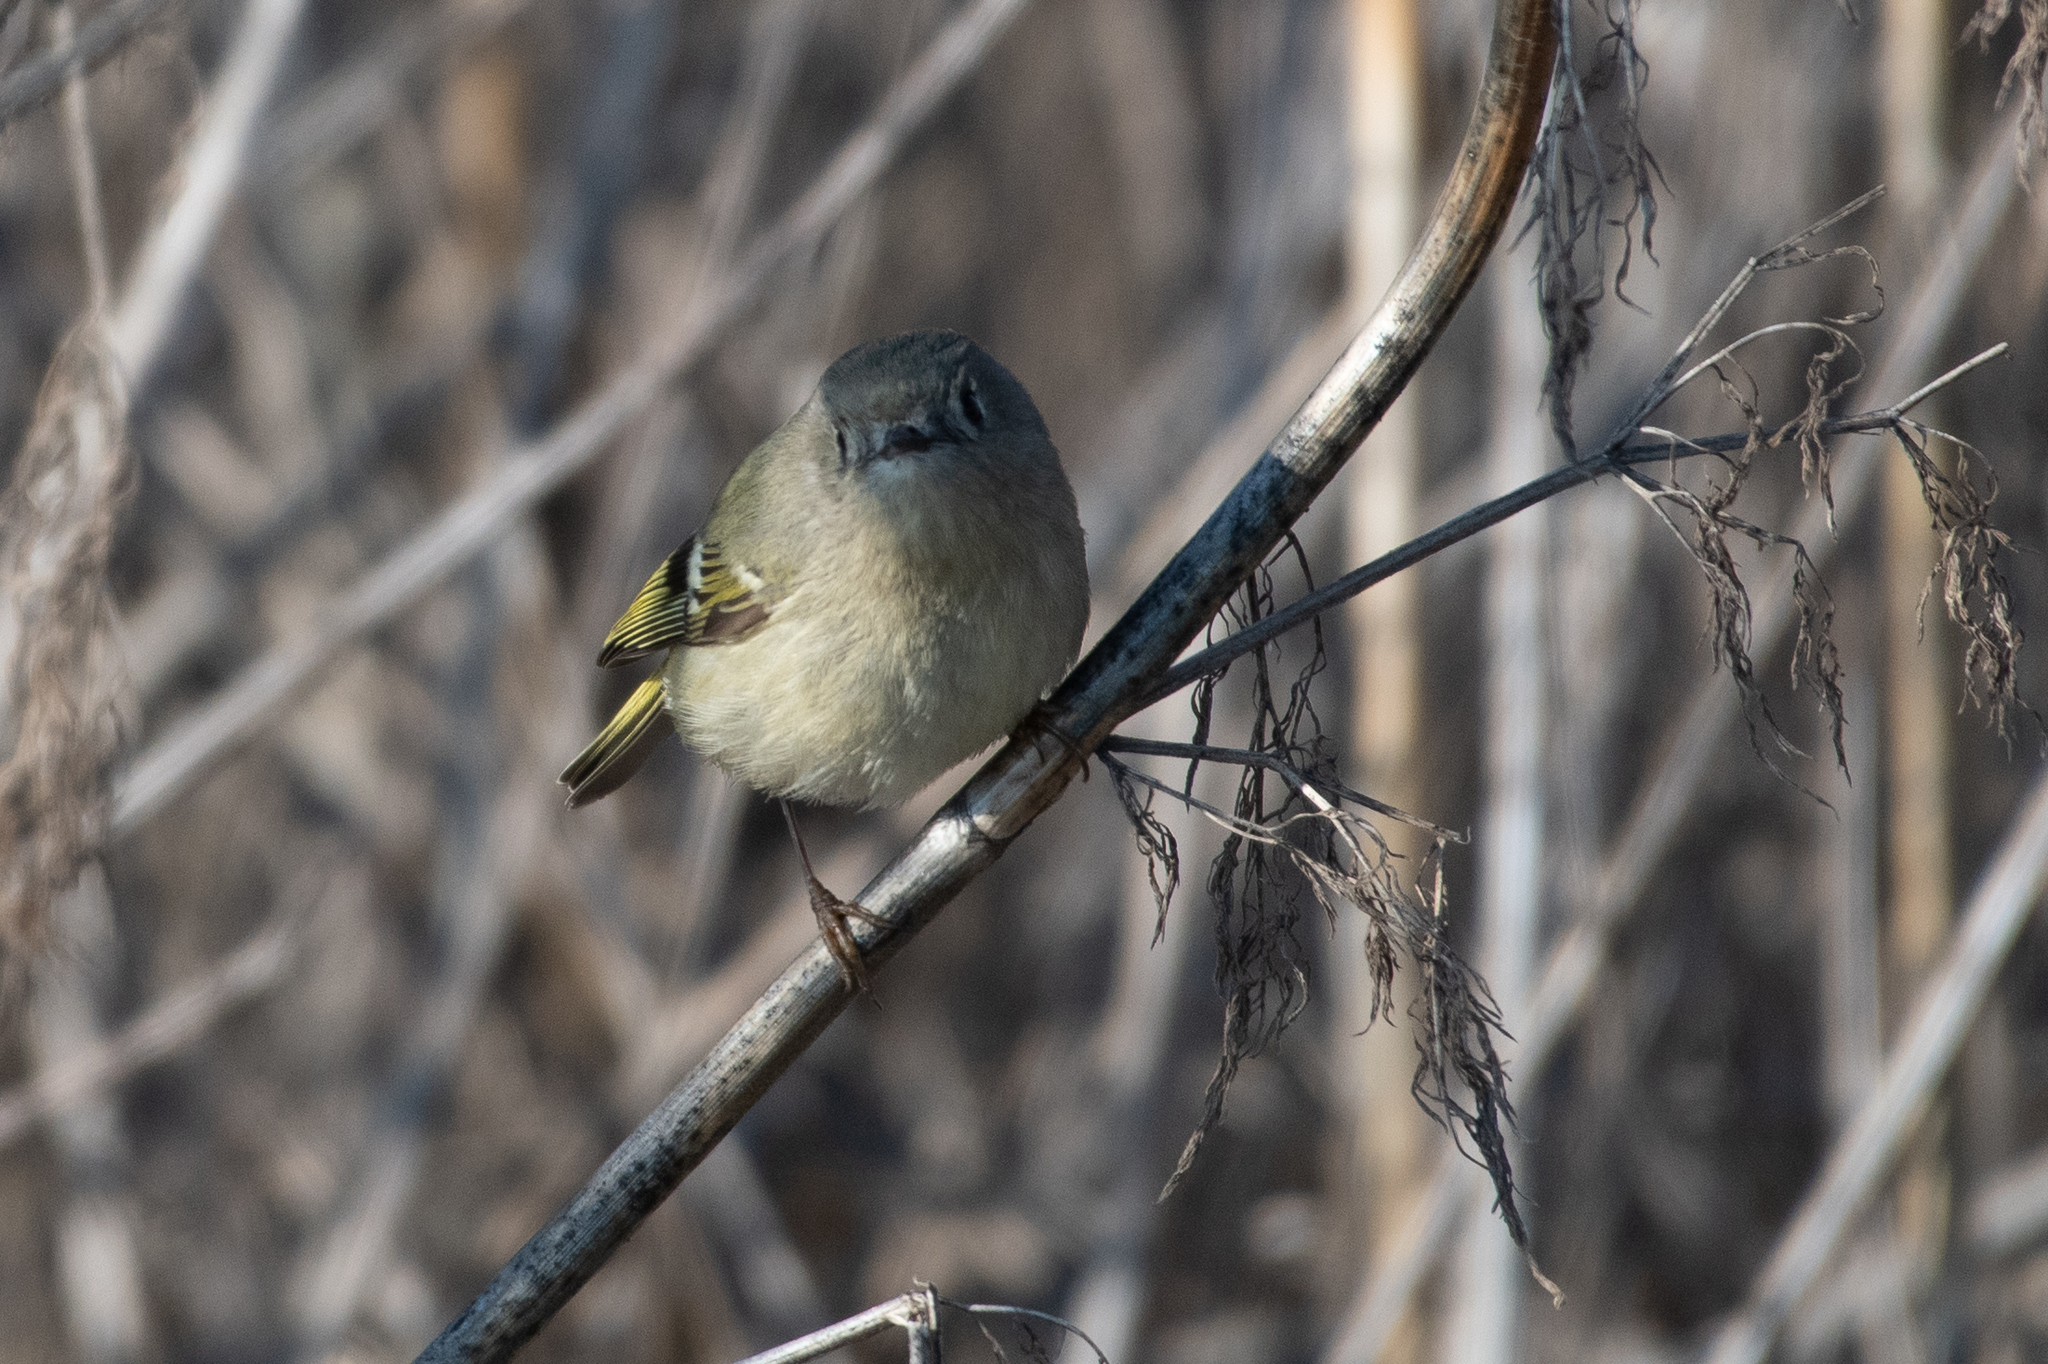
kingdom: Animalia
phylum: Chordata
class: Aves
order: Passeriformes
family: Regulidae
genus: Regulus
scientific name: Regulus calendula
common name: Ruby-crowned kinglet
